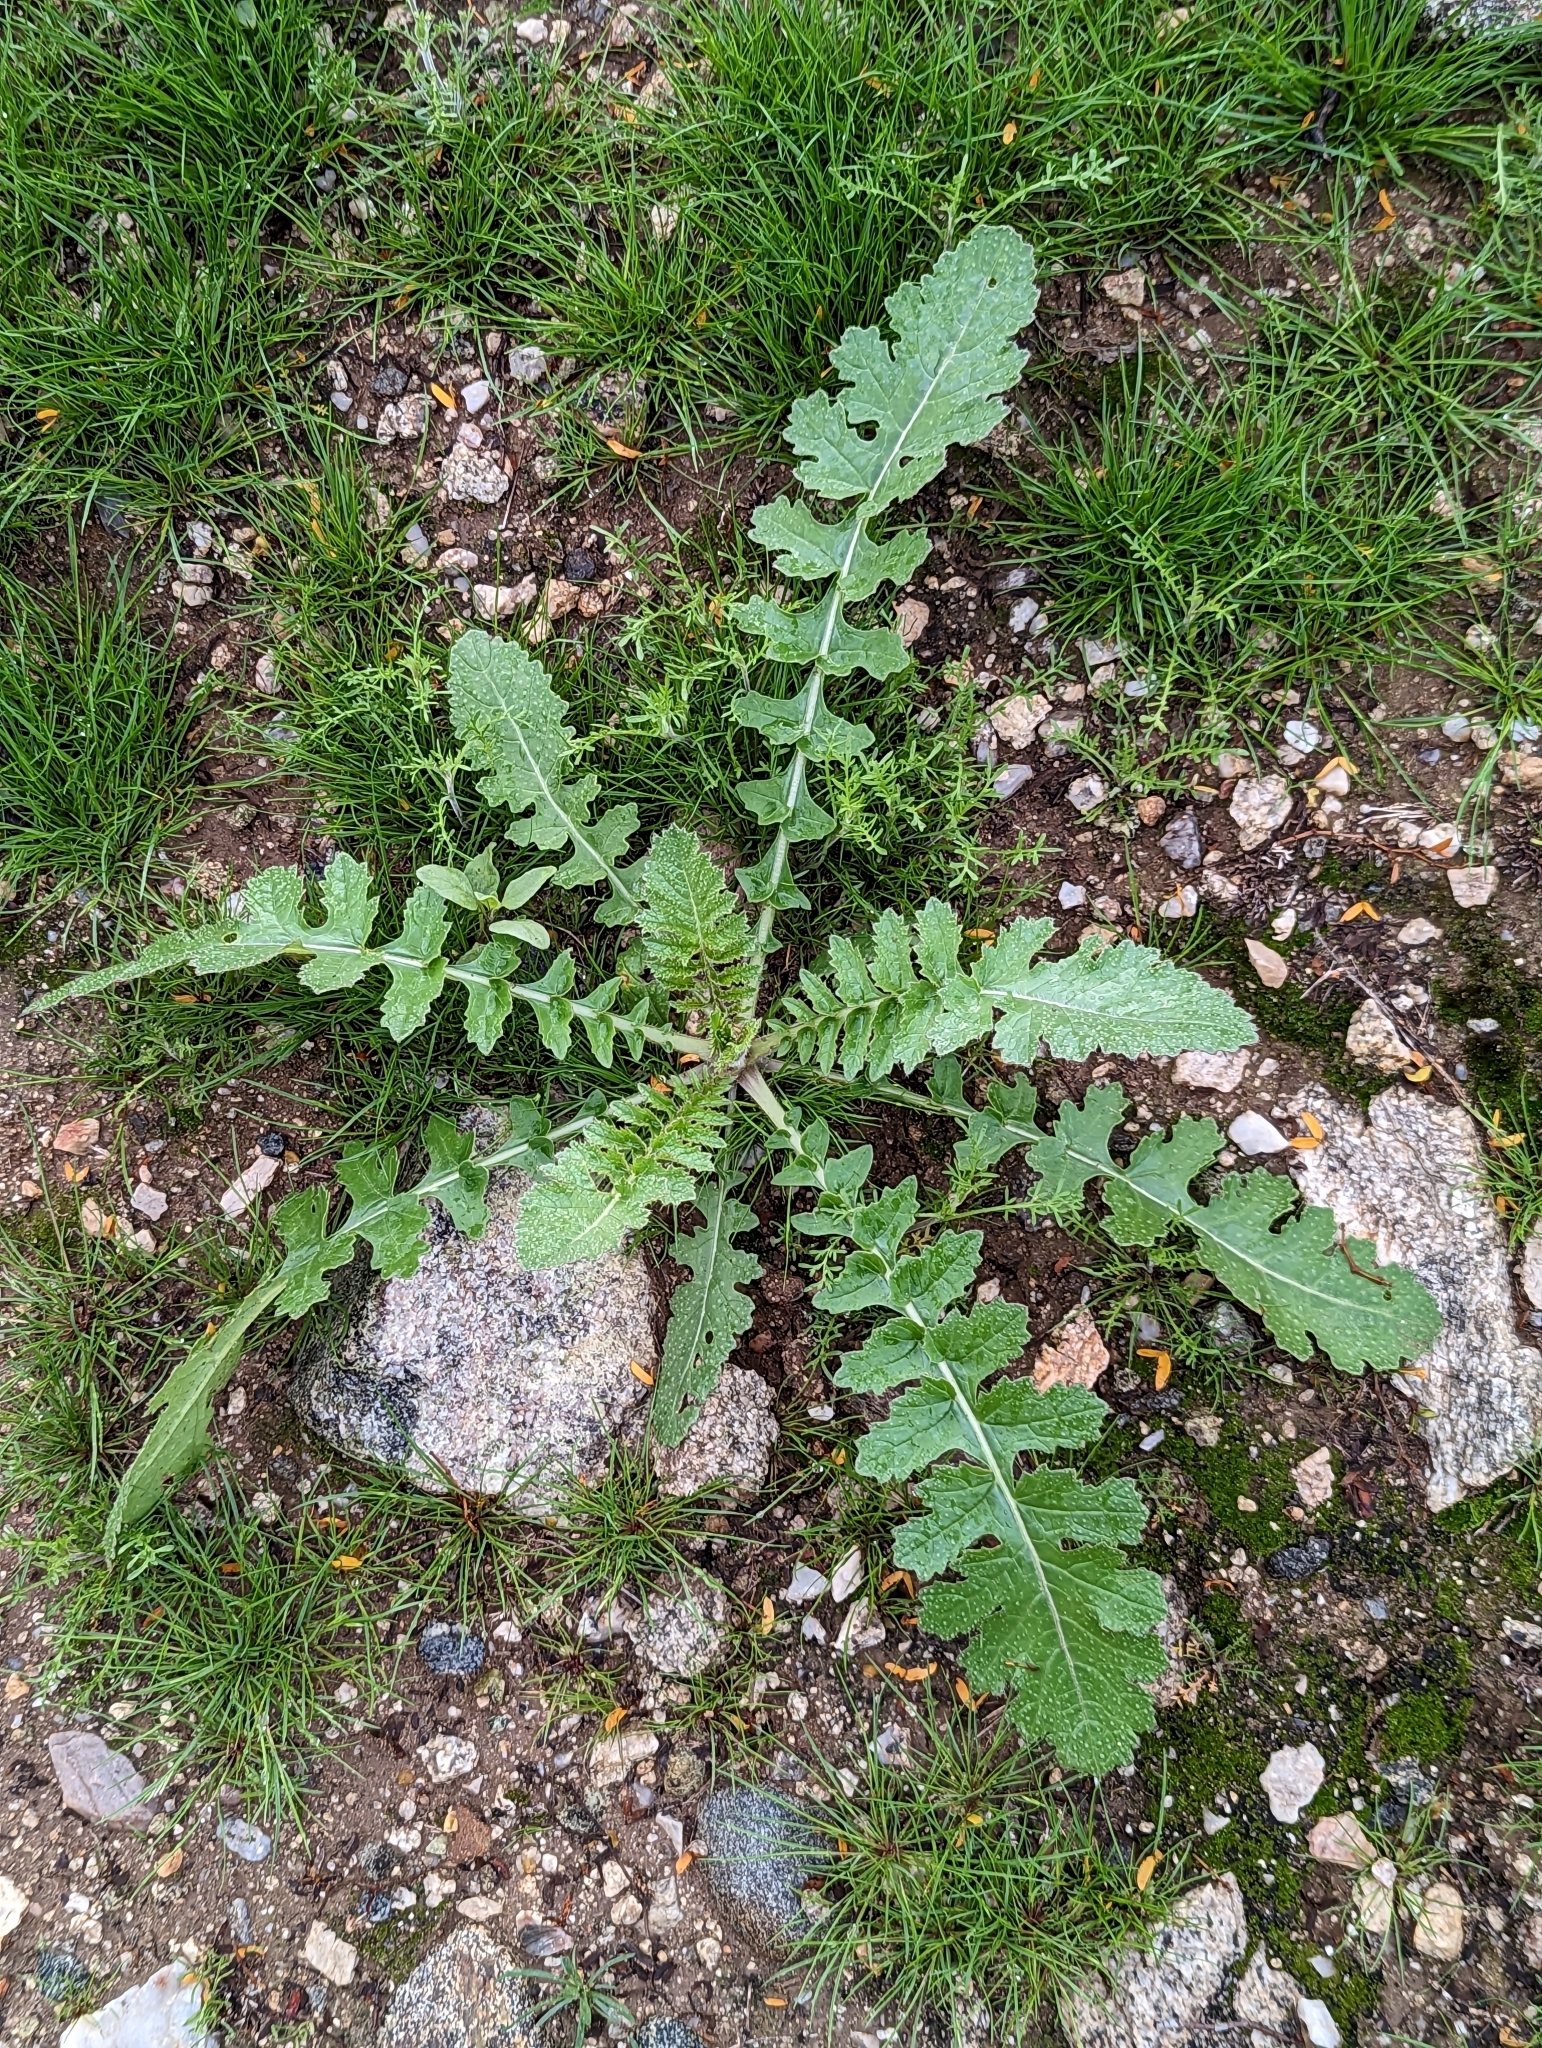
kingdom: Plantae
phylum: Tracheophyta
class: Magnoliopsida
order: Brassicales
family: Brassicaceae
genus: Brassica
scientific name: Brassica tournefortii
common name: Pale cabbage
